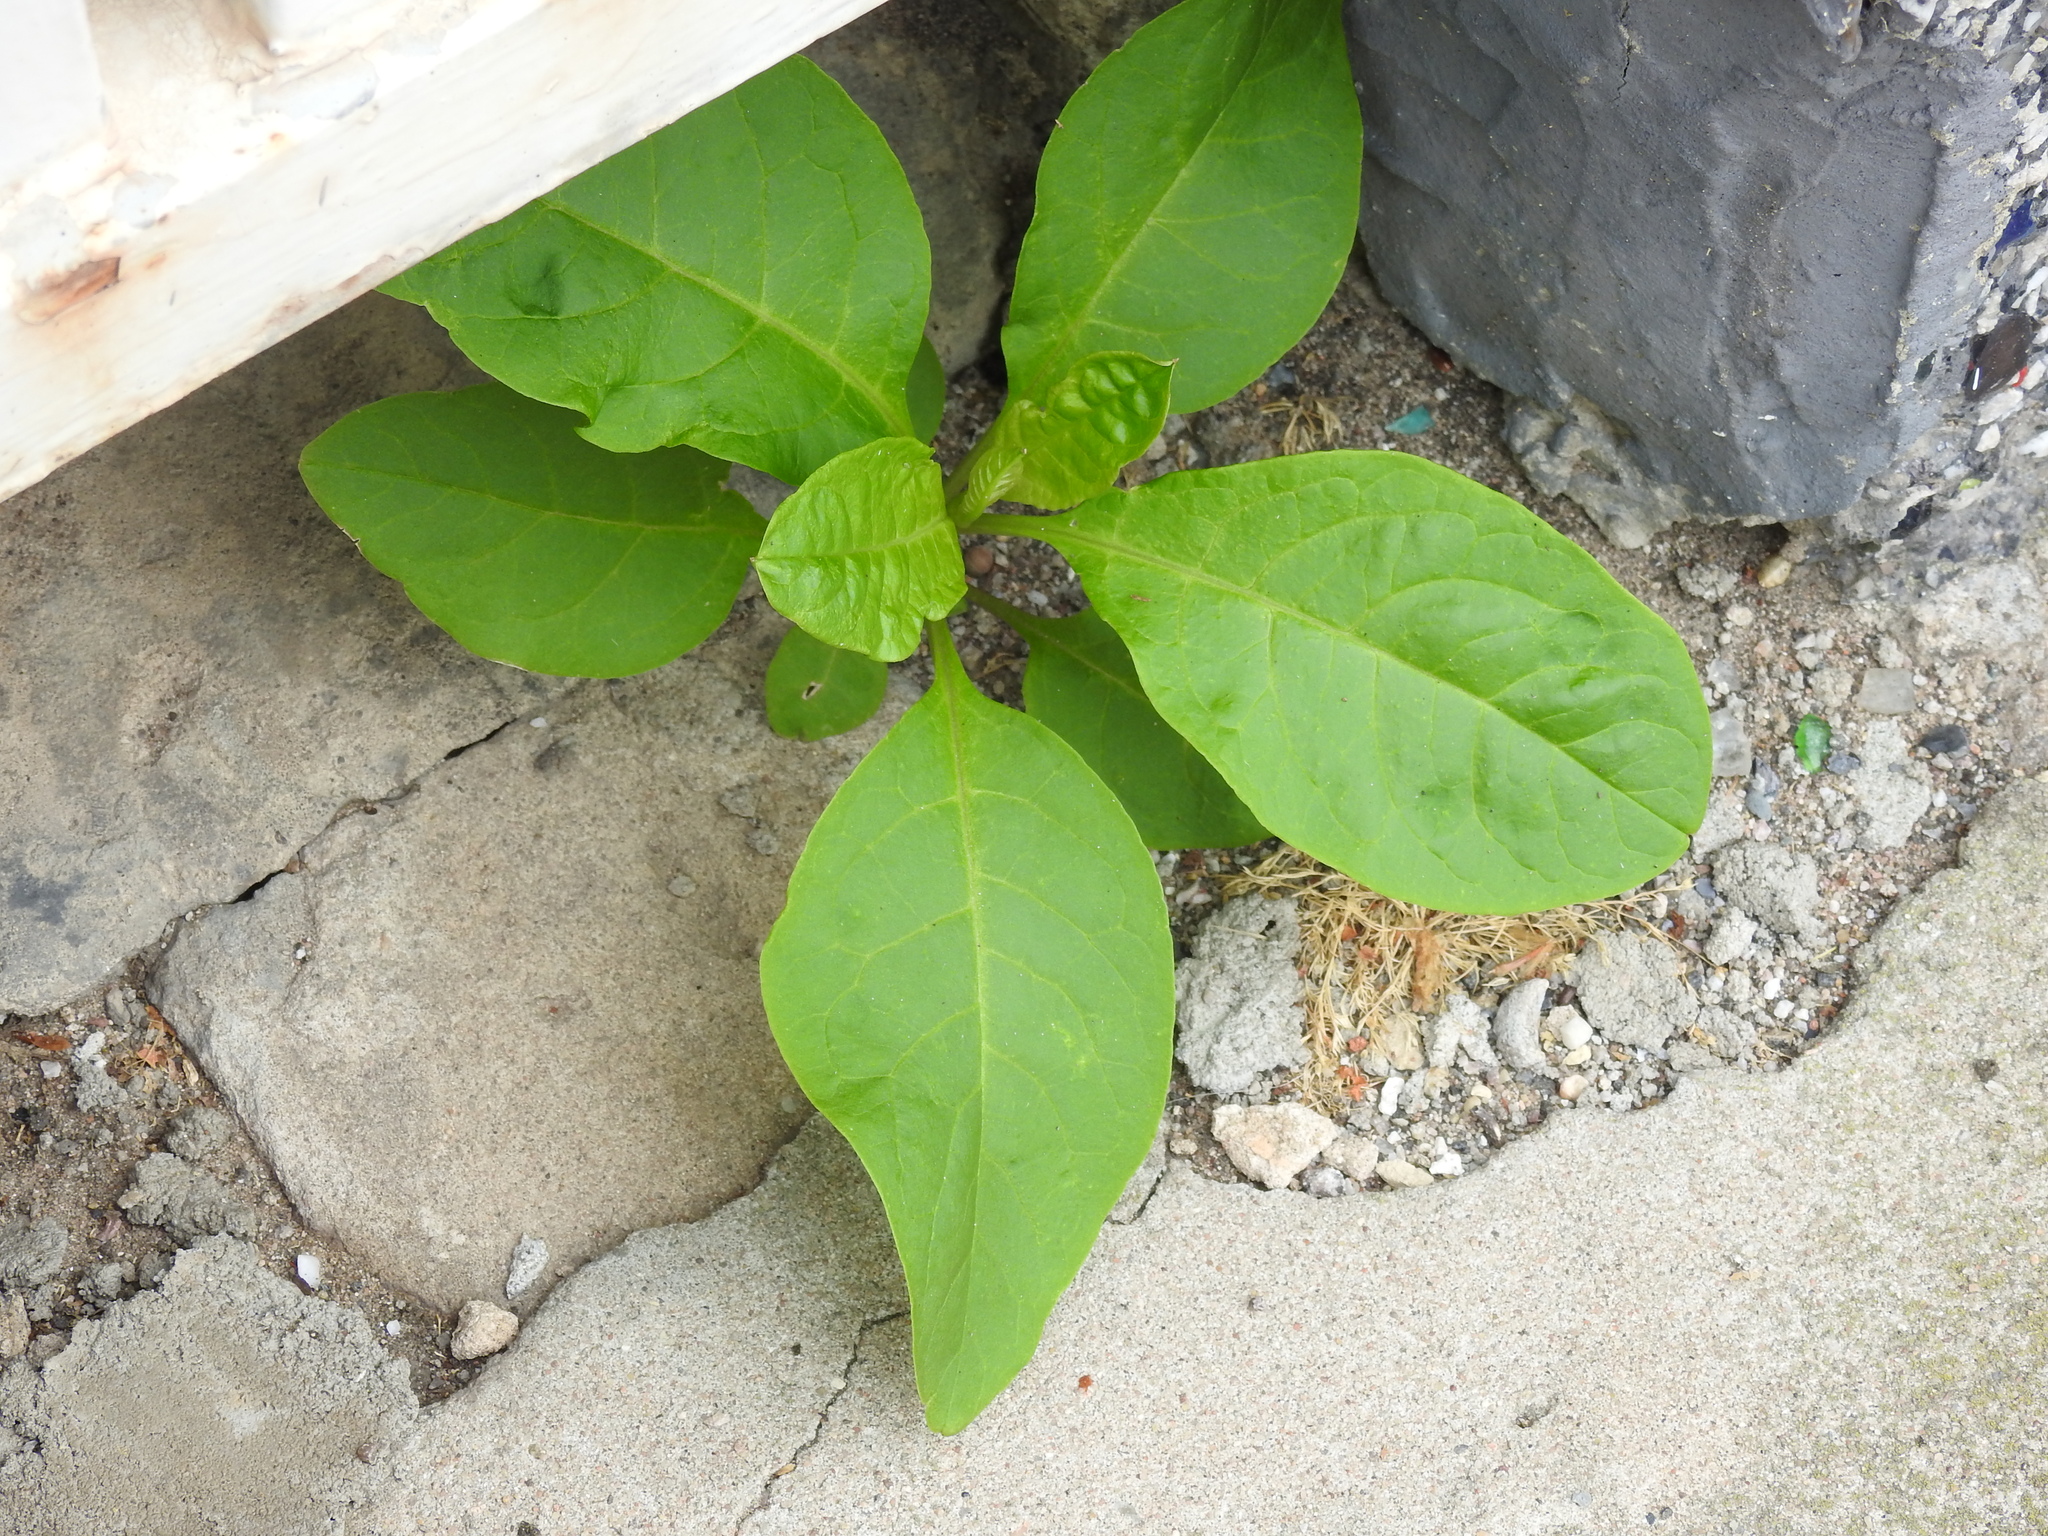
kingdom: Plantae
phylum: Tracheophyta
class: Magnoliopsida
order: Caryophyllales
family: Phytolaccaceae
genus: Phytolacca
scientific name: Phytolacca americana
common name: American pokeweed
